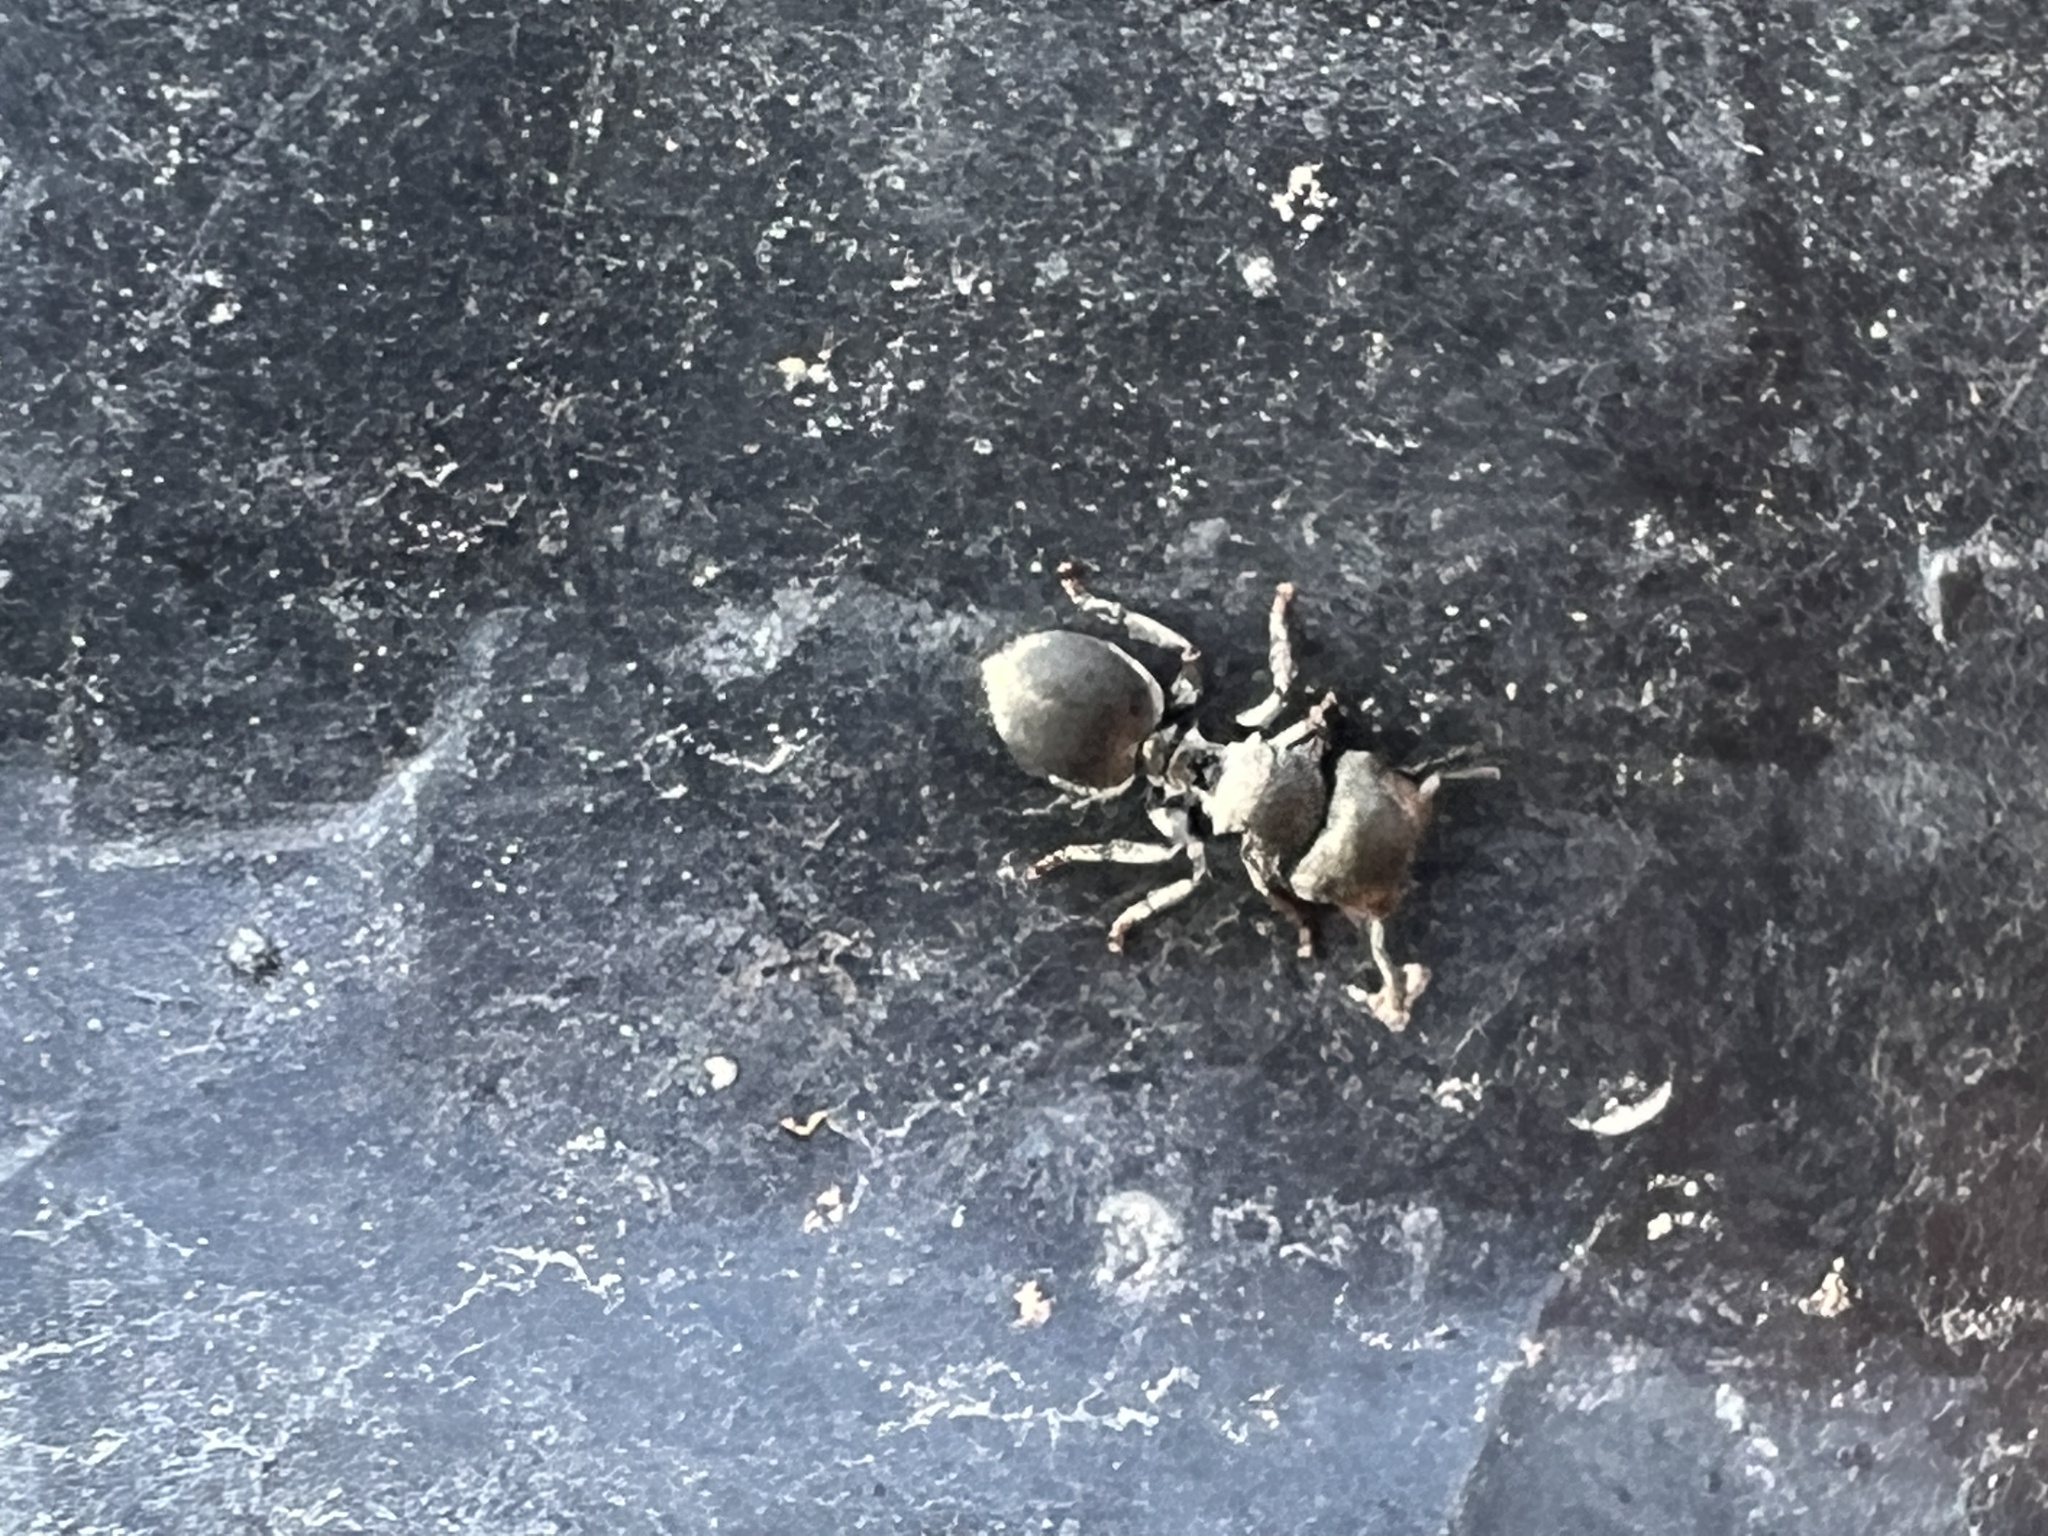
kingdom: Animalia
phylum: Arthropoda
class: Insecta
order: Hymenoptera
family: Formicidae
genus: Cephalotes
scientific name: Cephalotes depressus
